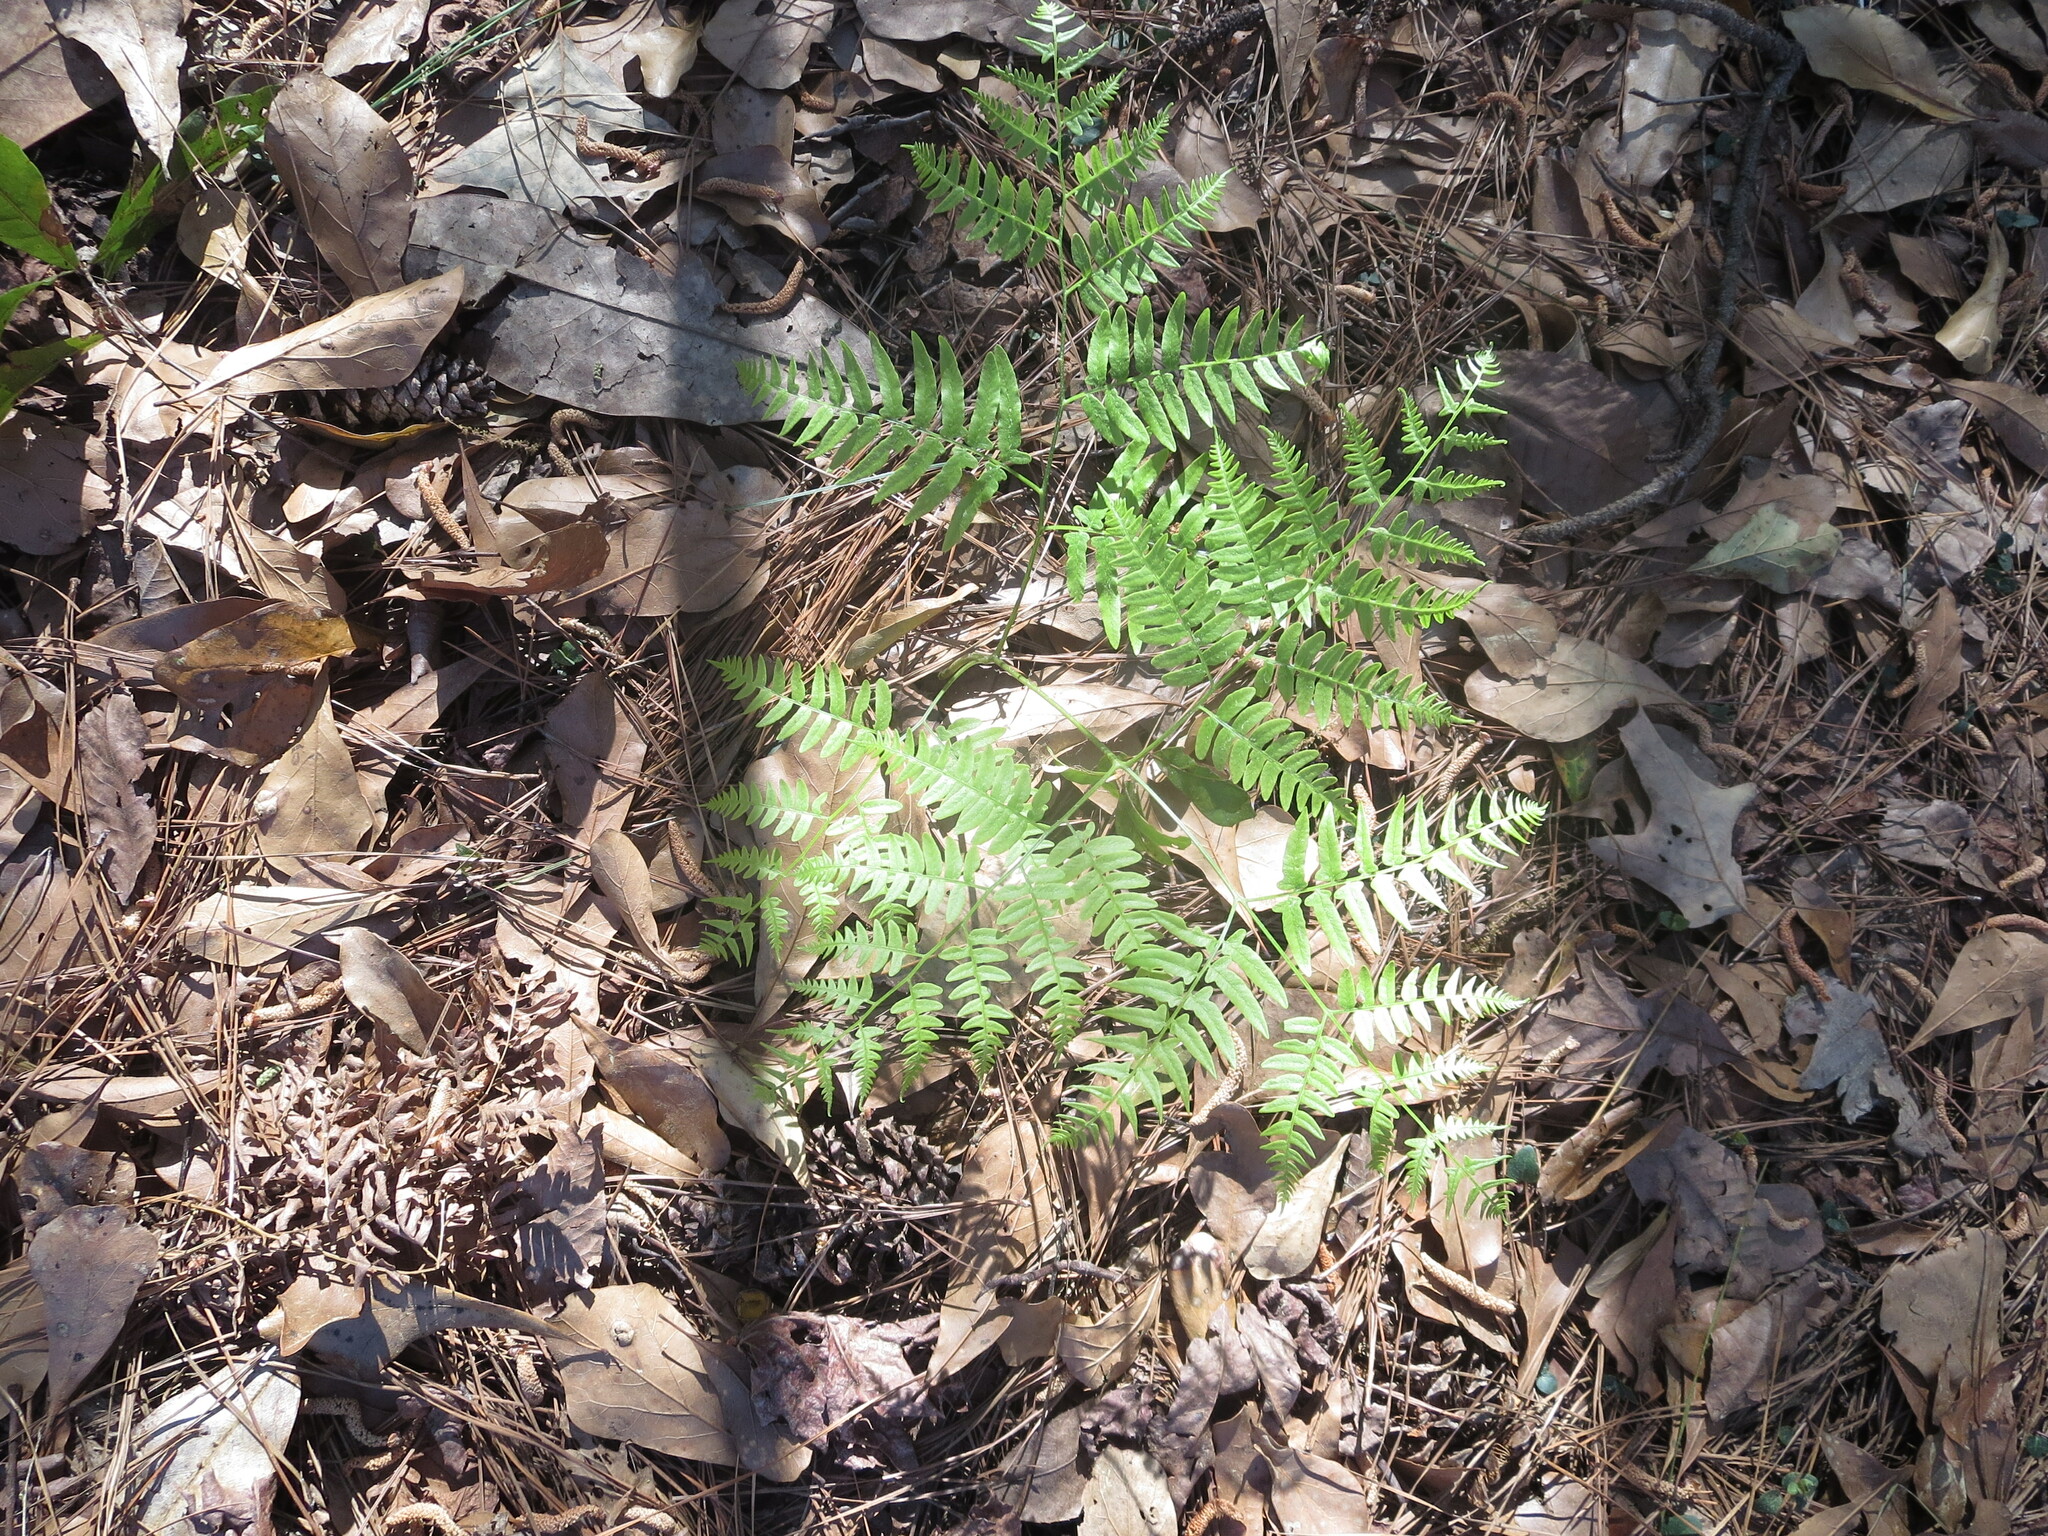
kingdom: Plantae
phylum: Tracheophyta
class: Polypodiopsida
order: Polypodiales
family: Dennstaedtiaceae
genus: Pteridium
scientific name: Pteridium aquilinum
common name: Bracken
